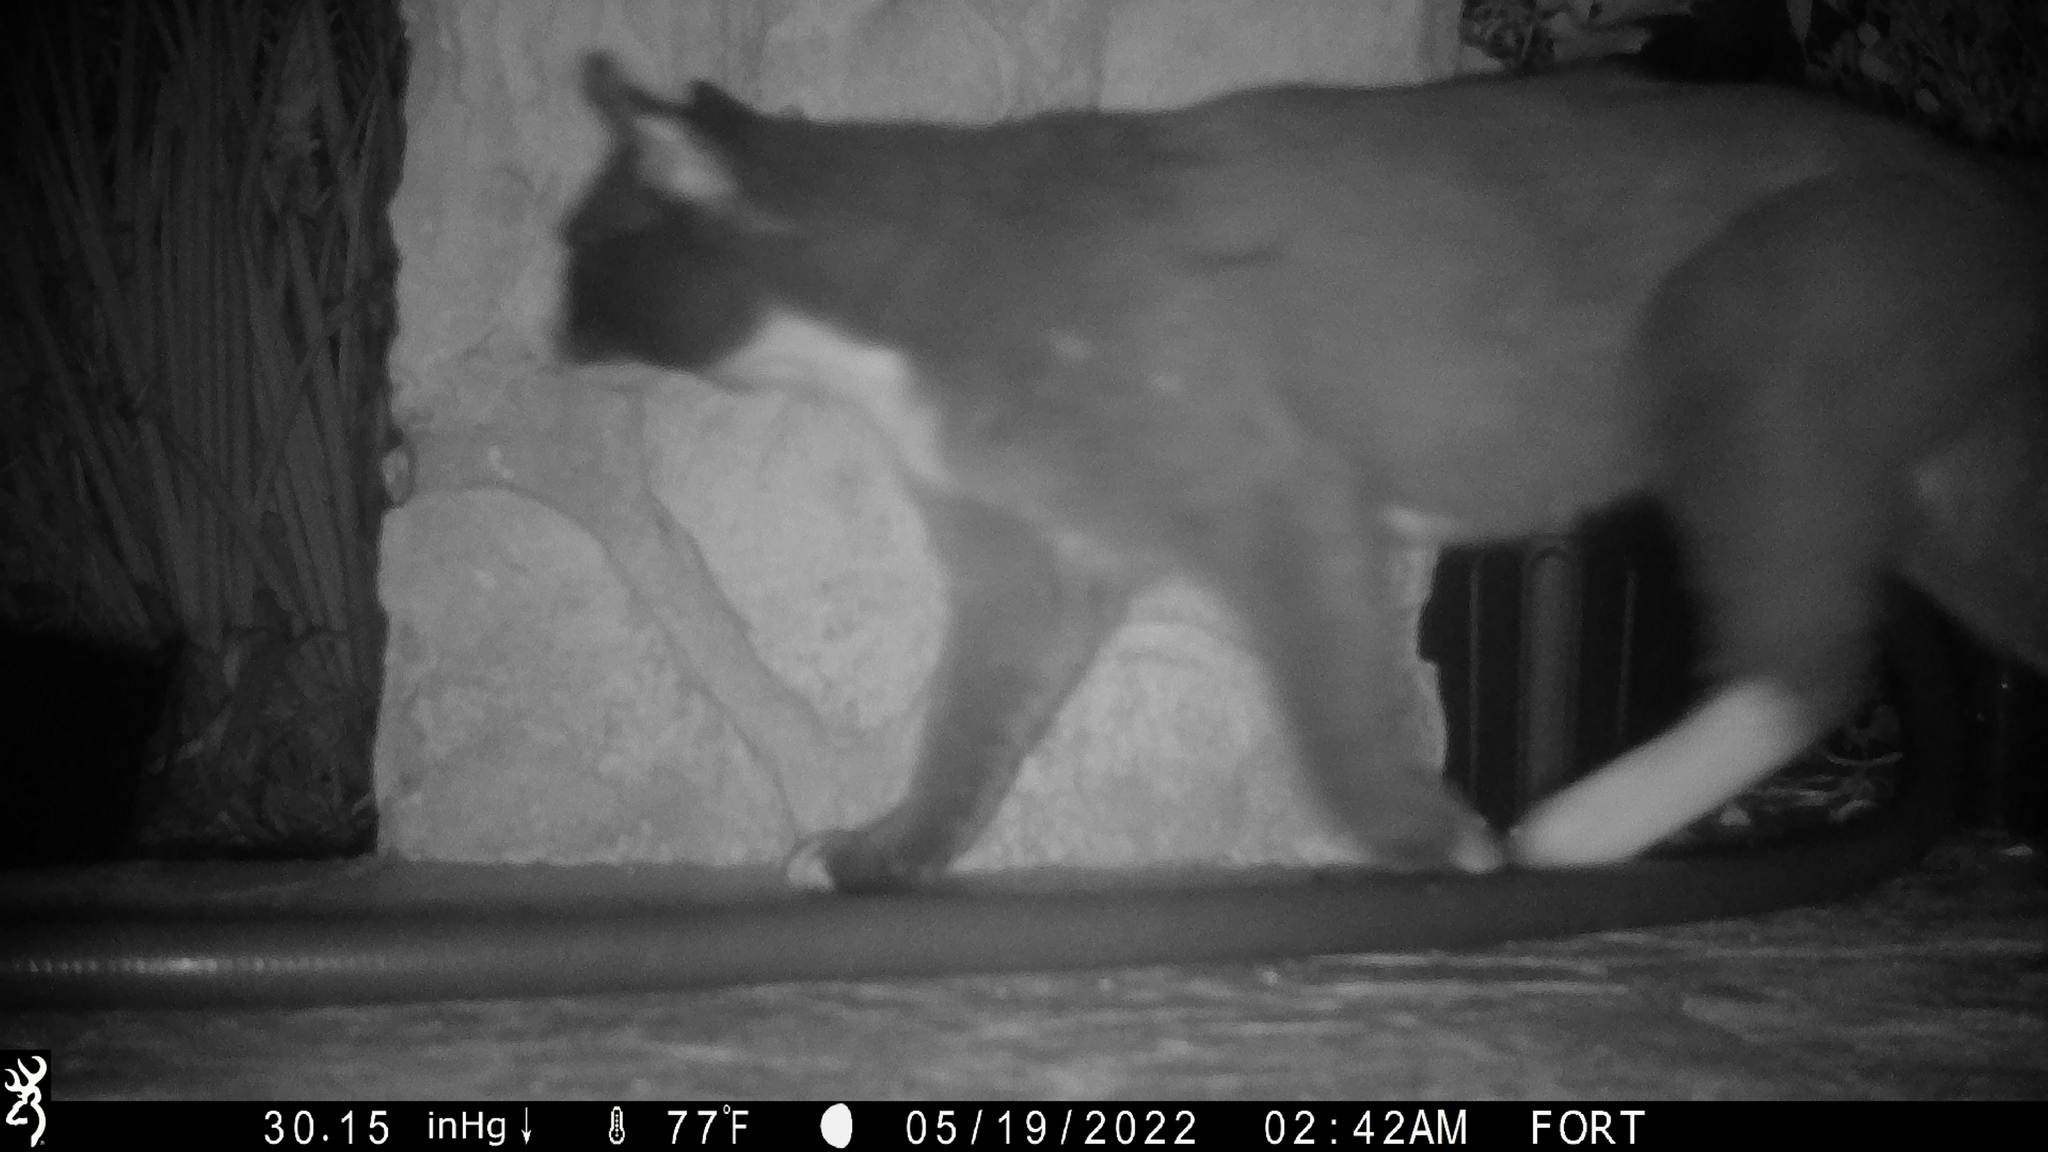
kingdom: Animalia
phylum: Chordata
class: Mammalia
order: Carnivora
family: Felidae
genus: Felis
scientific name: Felis catus
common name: Domestic cat
